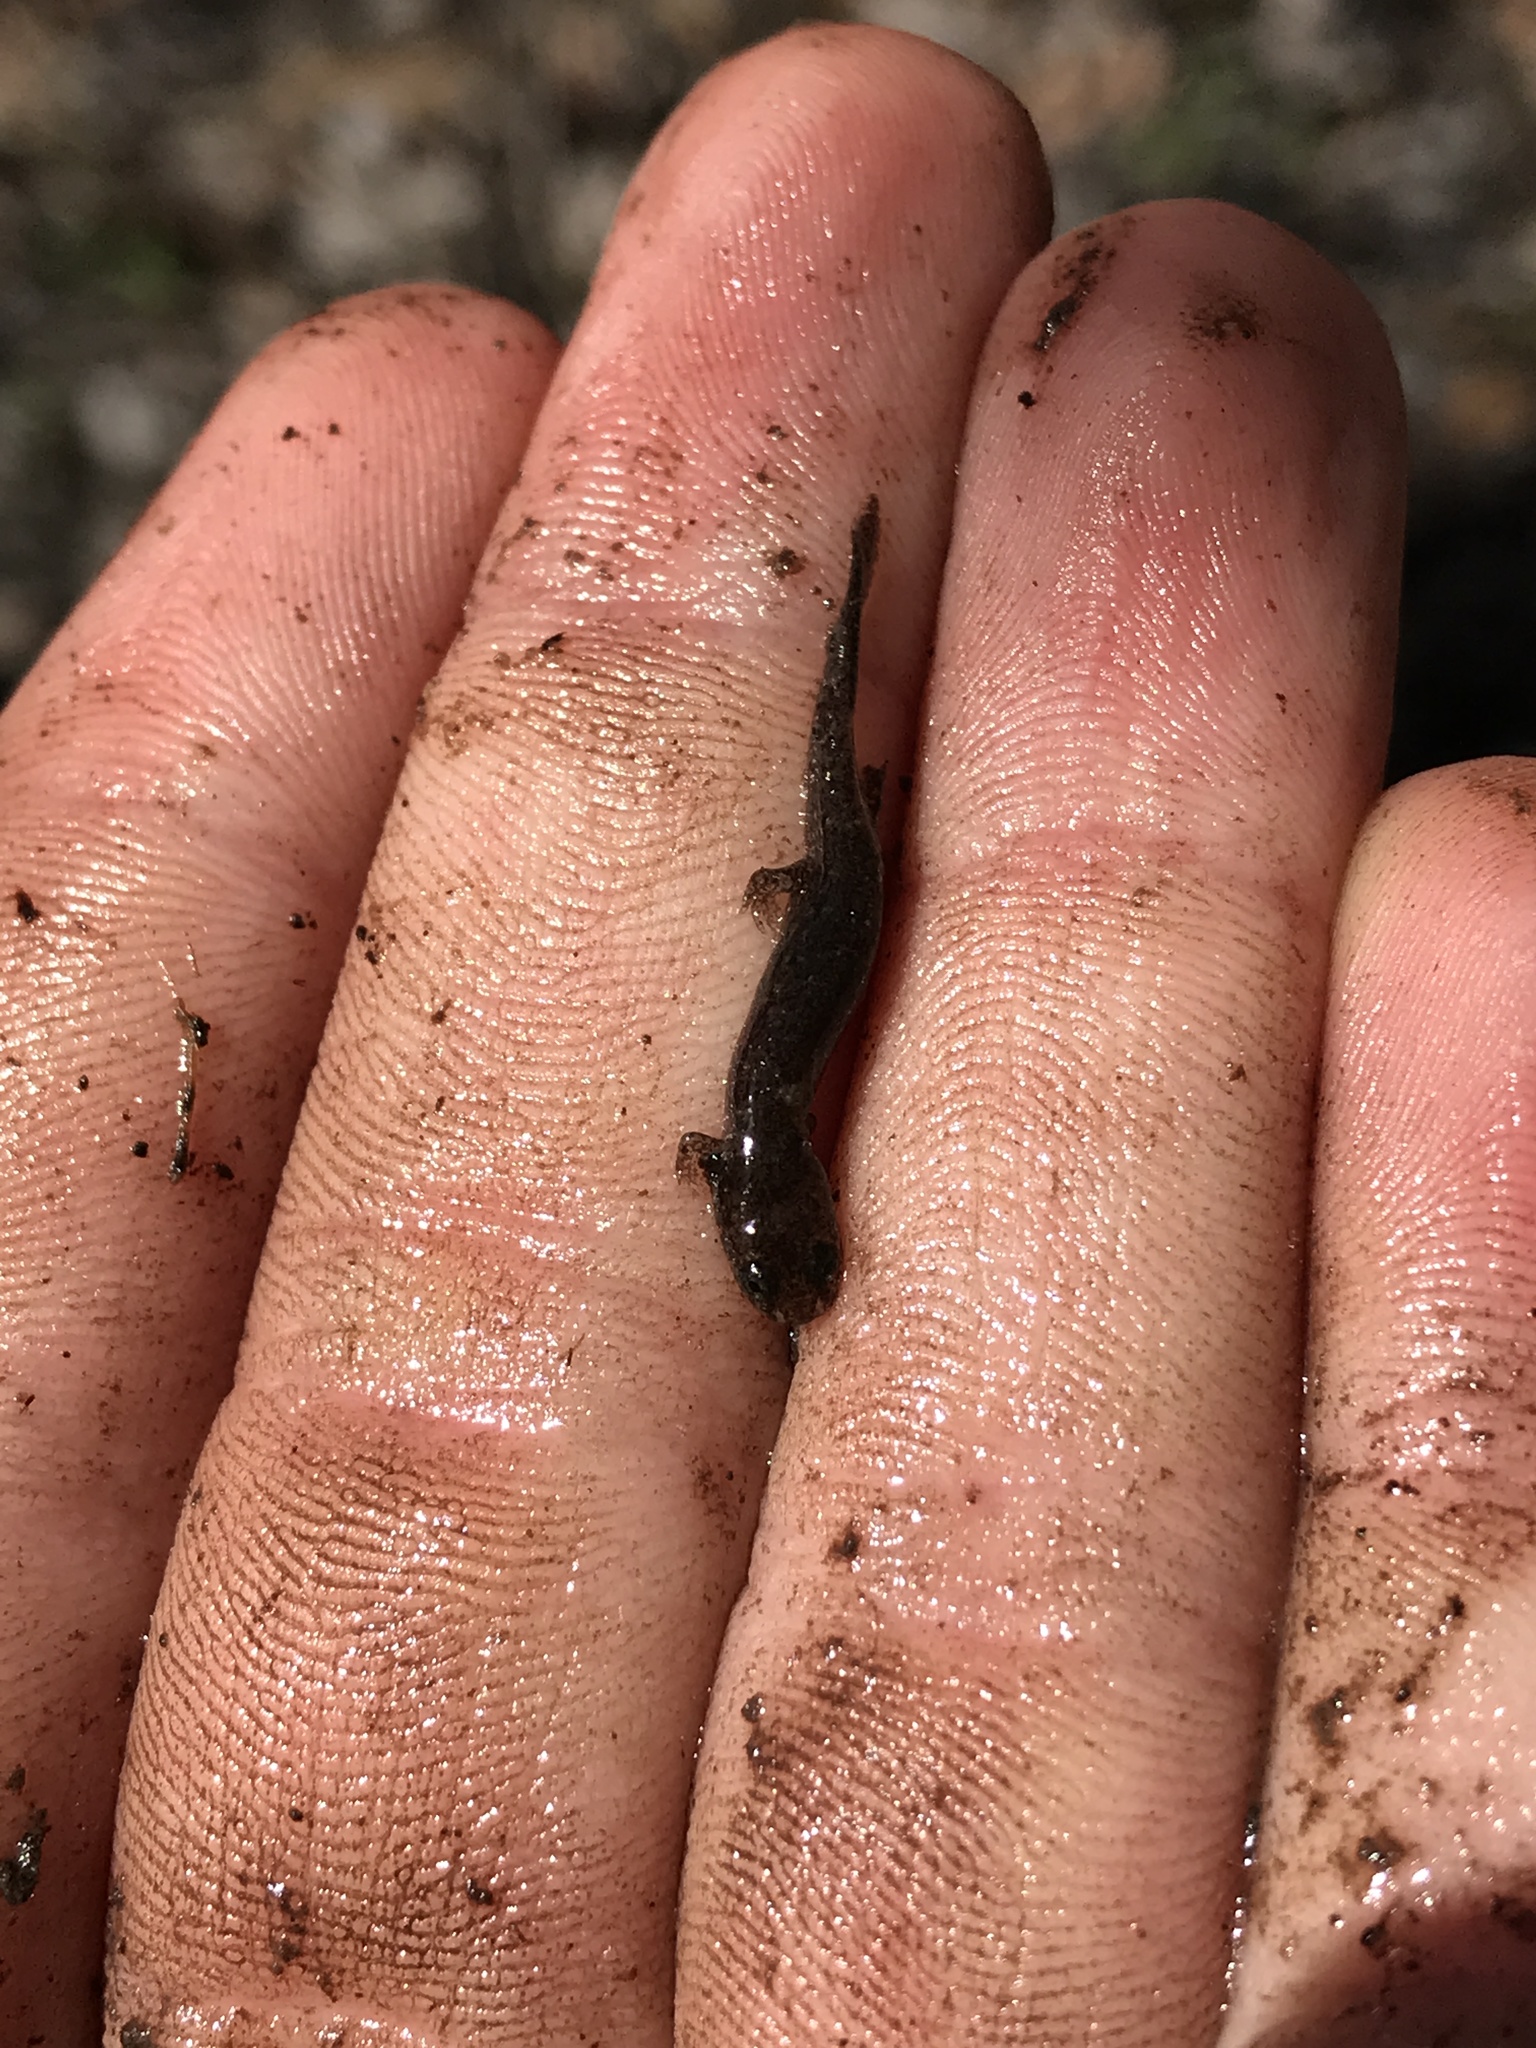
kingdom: Animalia
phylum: Chordata
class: Amphibia
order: Caudata
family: Plethodontidae
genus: Desmognathus
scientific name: Desmognathus
